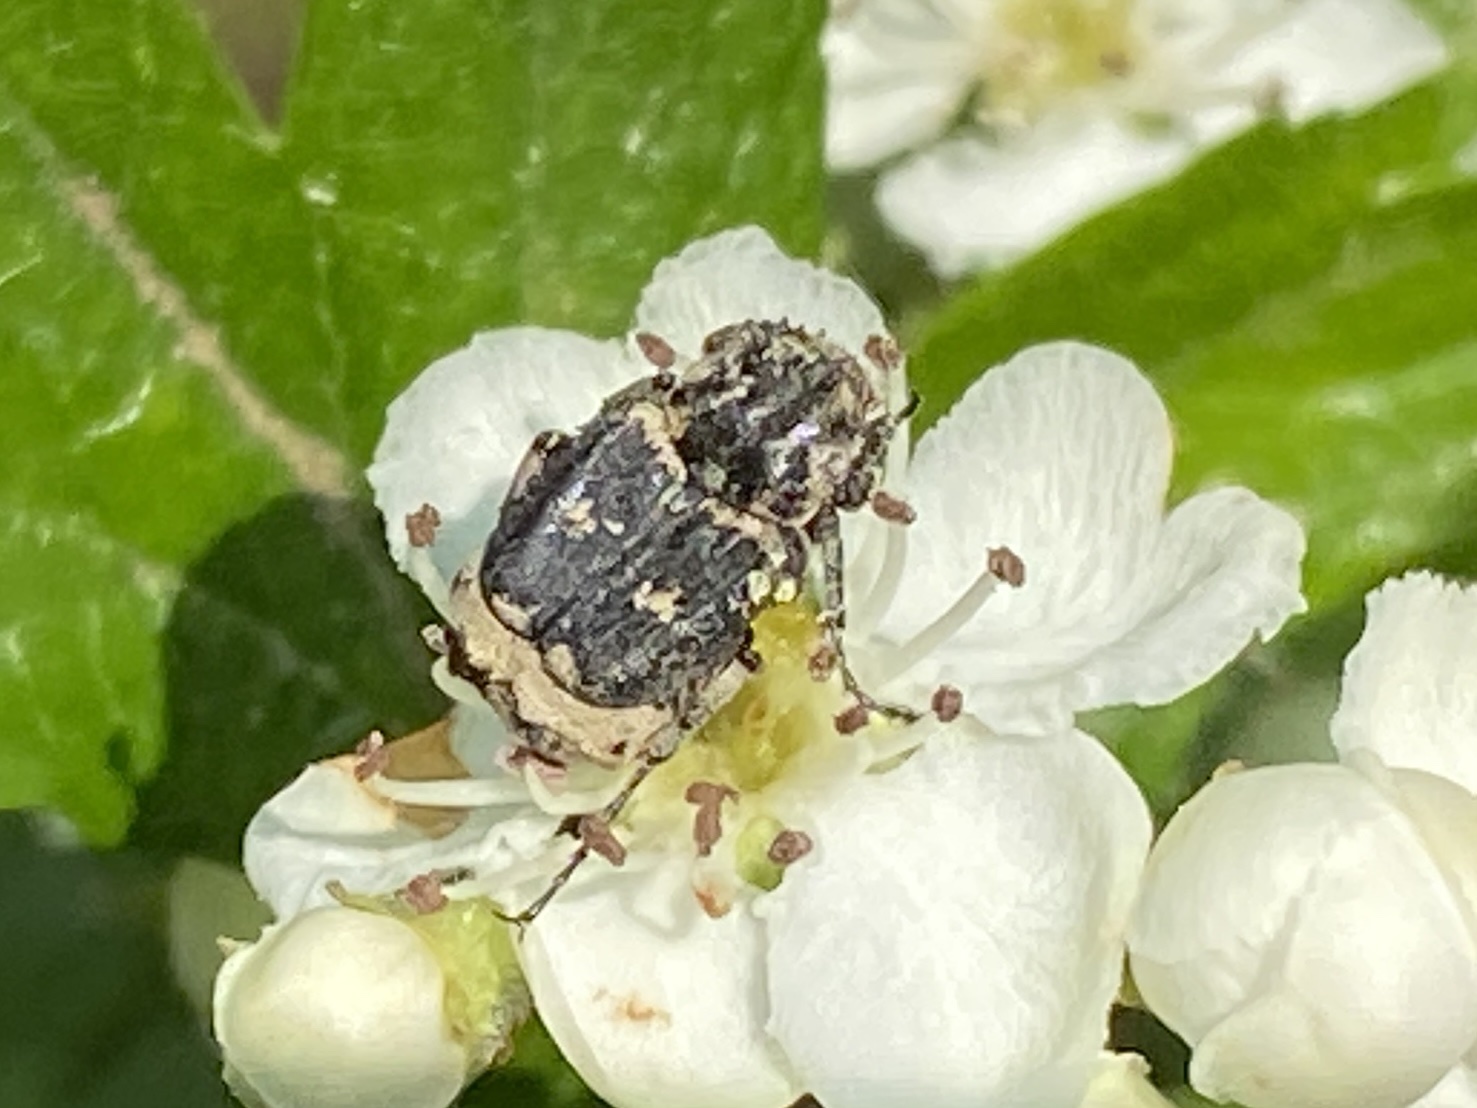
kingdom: Animalia
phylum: Arthropoda
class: Insecta
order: Coleoptera
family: Scarabaeidae
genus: Valgus
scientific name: Valgus hemipterus
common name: Bug flower chafer
